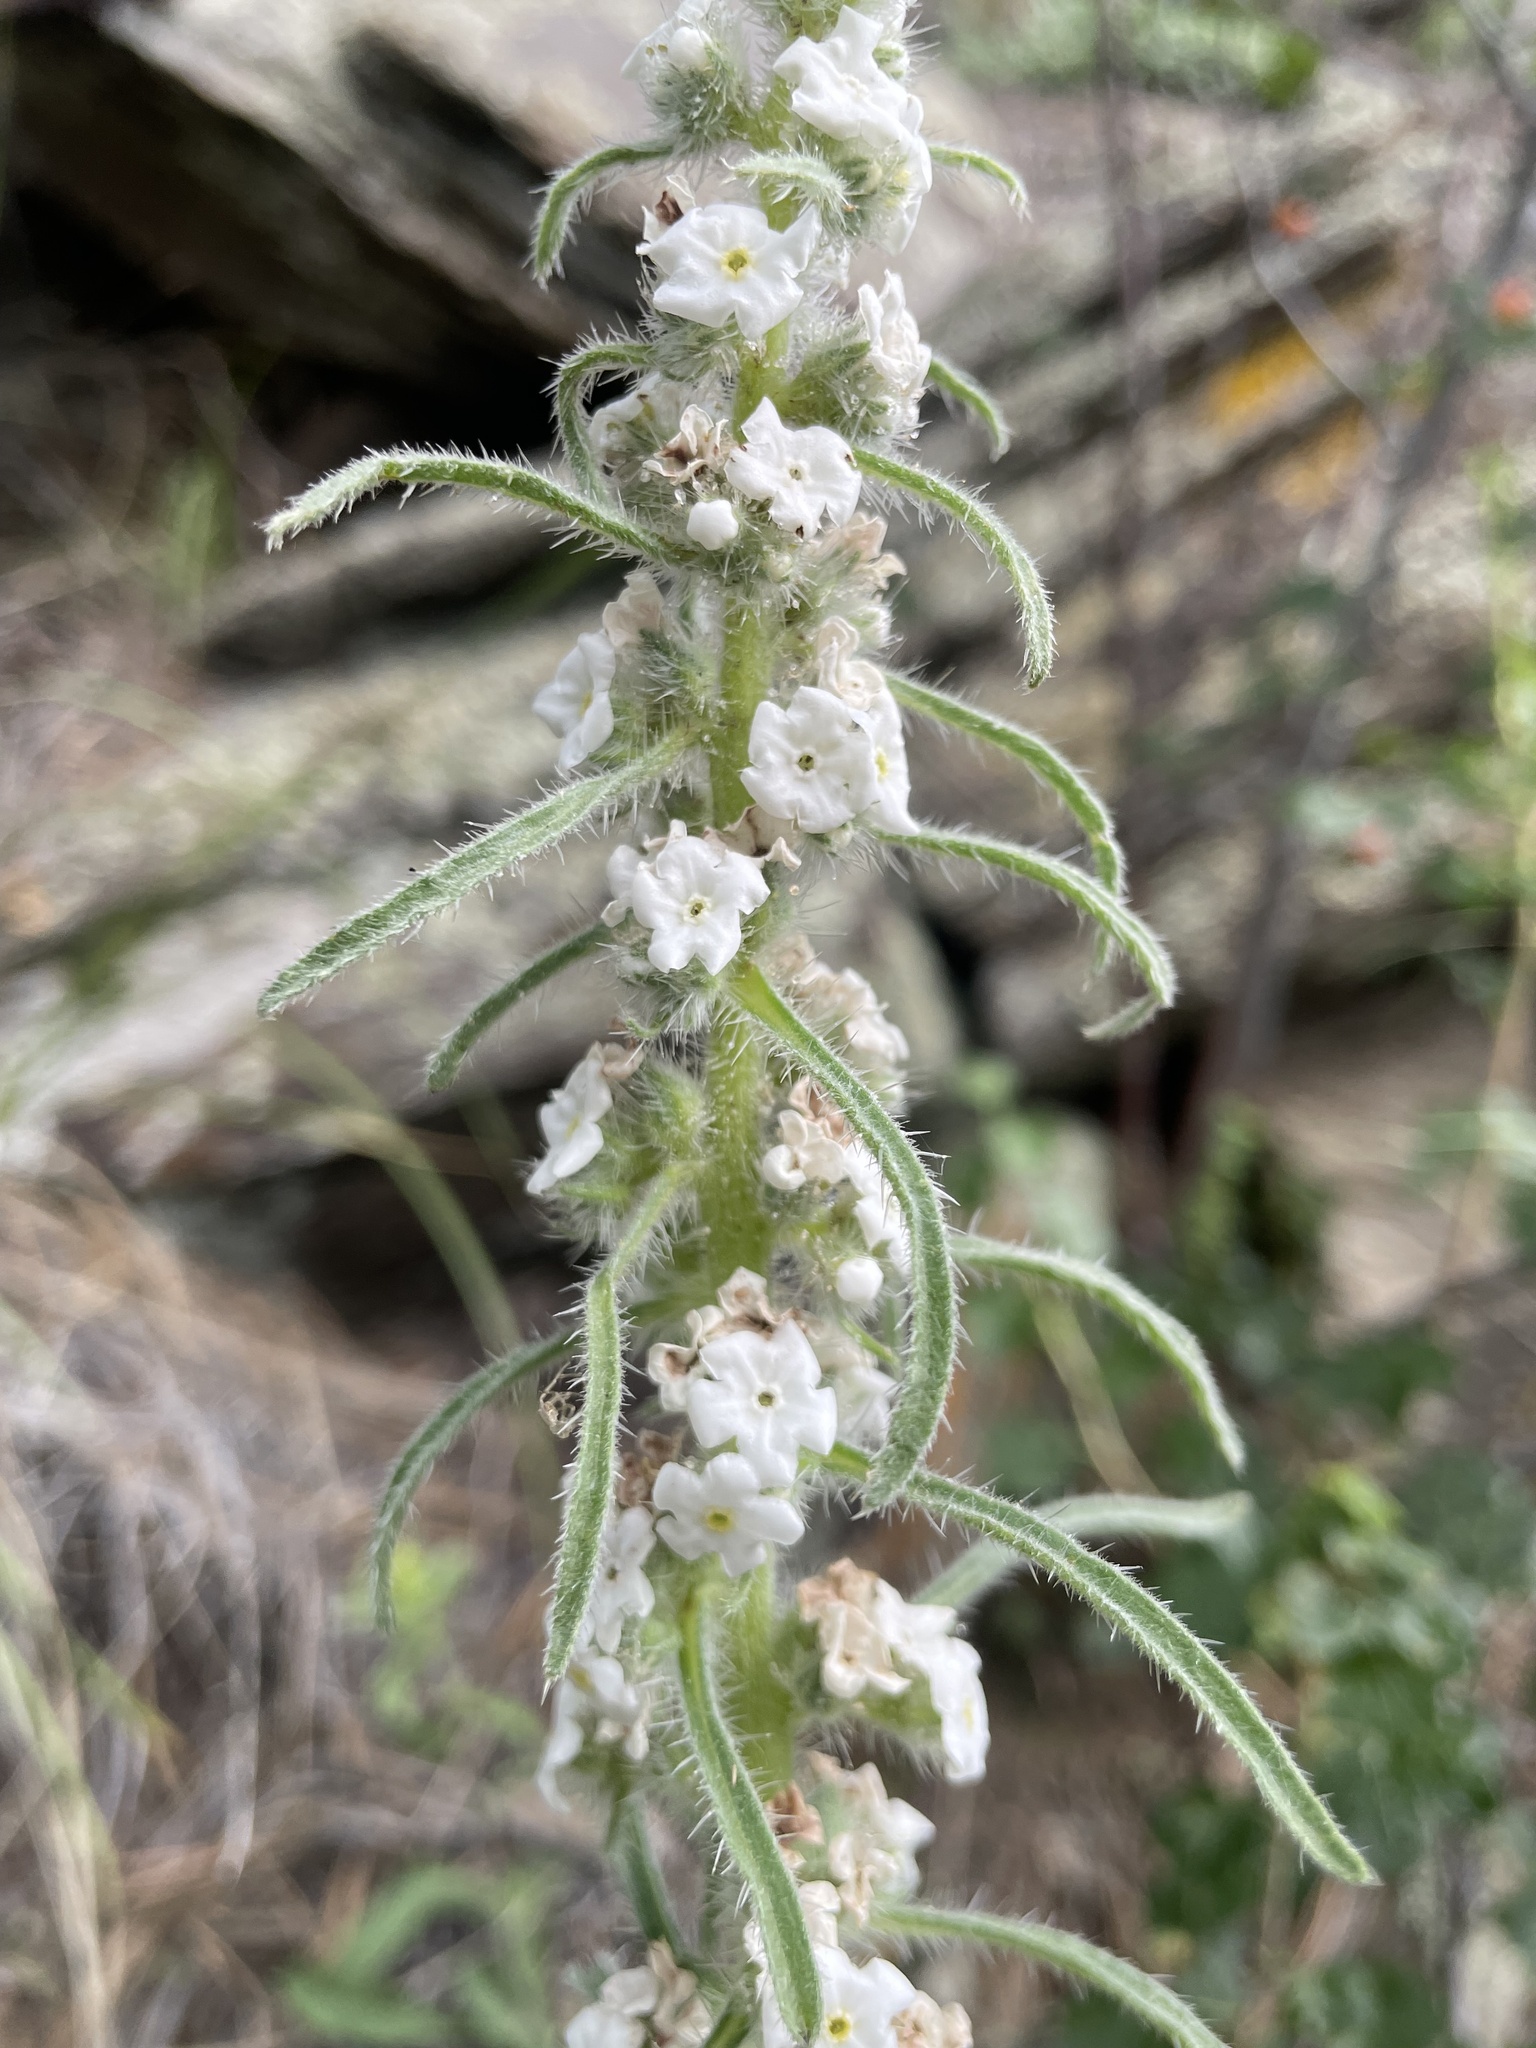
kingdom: Plantae
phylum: Tracheophyta
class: Magnoliopsida
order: Boraginales
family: Boraginaceae
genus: Oreocarya
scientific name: Oreocarya virgata
